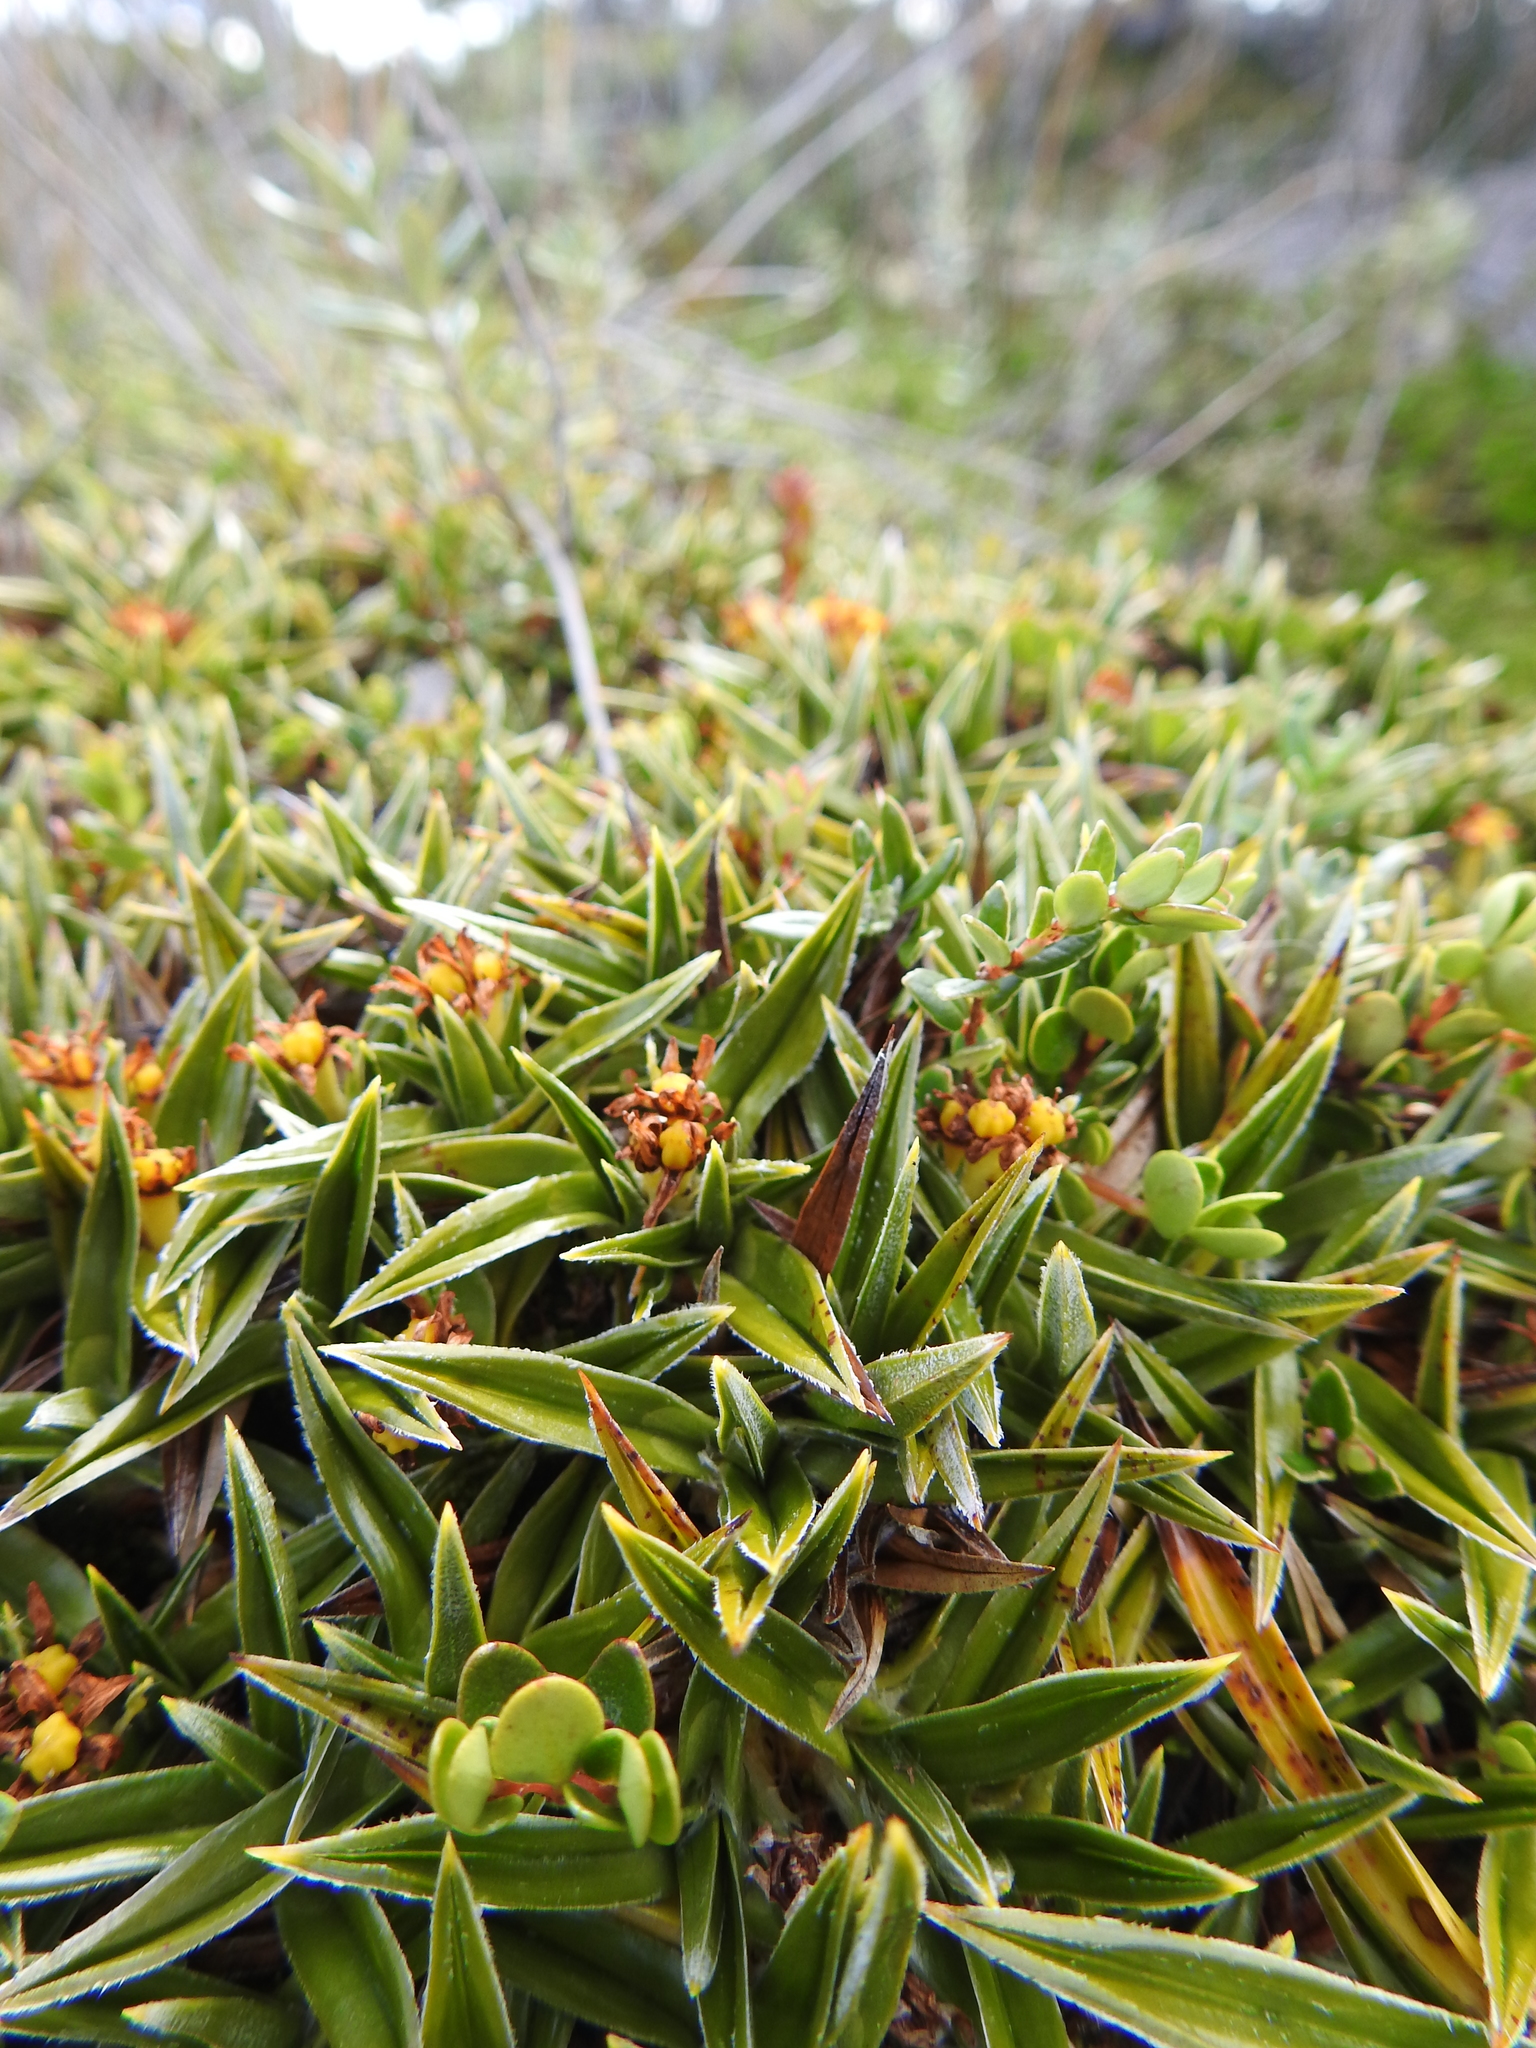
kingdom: Plantae
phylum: Tracheophyta
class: Liliopsida
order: Asparagales
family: Asteliaceae
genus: Astelia
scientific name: Astelia pumila
